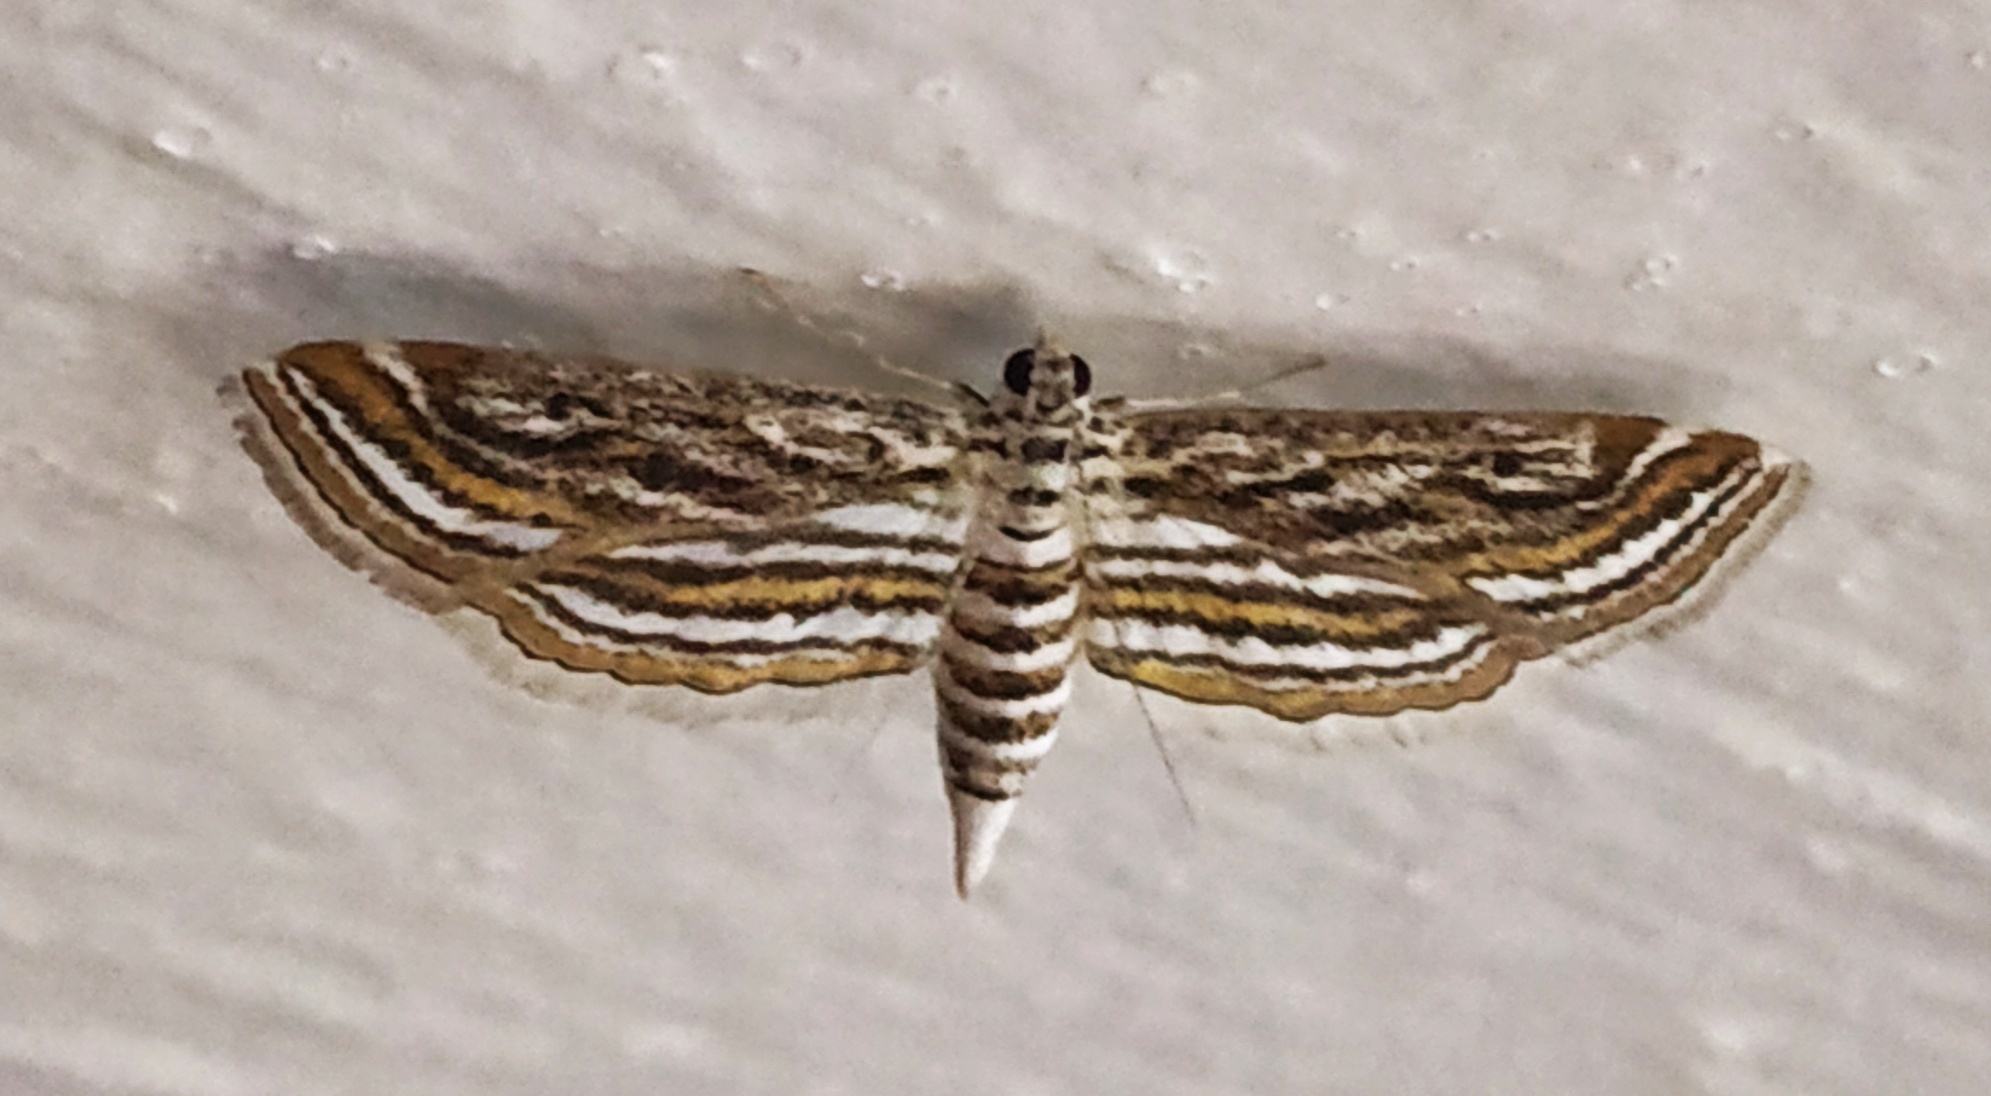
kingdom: Animalia
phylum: Arthropoda
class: Insecta
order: Lepidoptera
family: Crambidae
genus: Parapoynx
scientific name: Parapoynx fluctuosalis
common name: Moth
